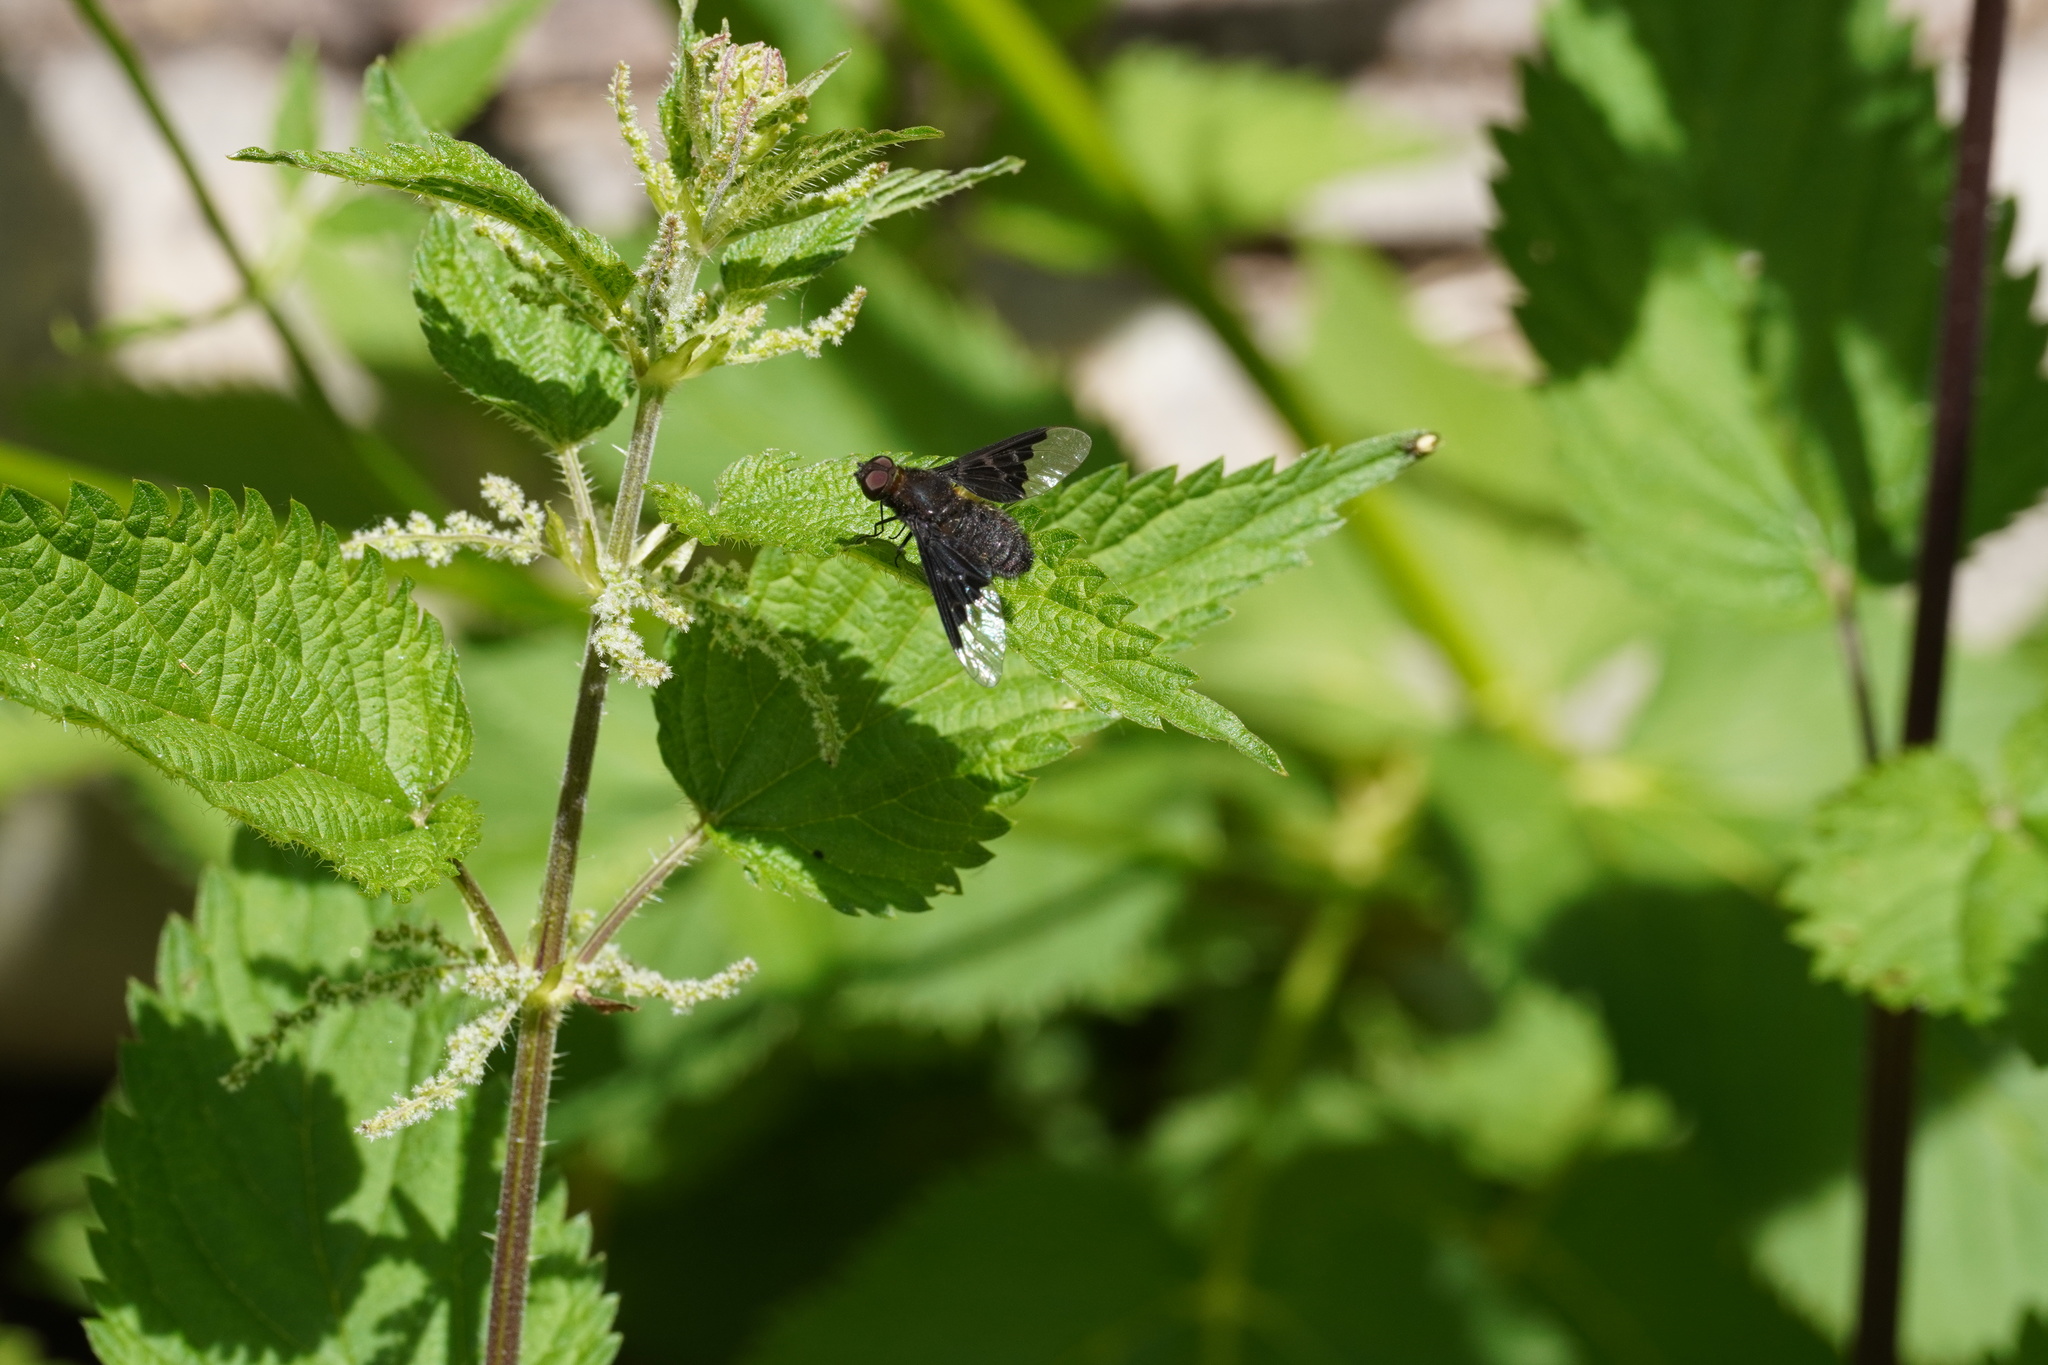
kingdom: Animalia
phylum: Arthropoda
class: Insecta
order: Diptera
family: Bombyliidae
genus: Hemipenthes
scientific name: Hemipenthes morio
